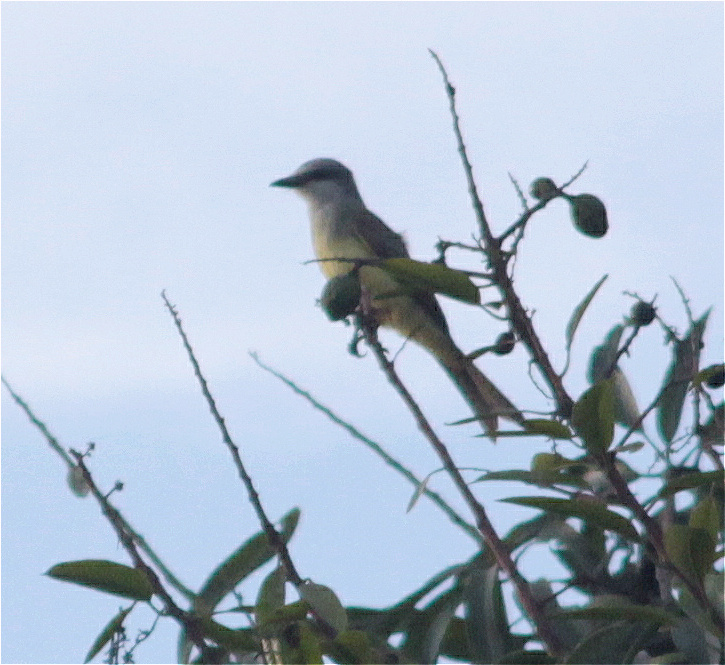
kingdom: Animalia
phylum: Chordata
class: Aves
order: Passeriformes
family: Tyrannidae
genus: Tyrannus
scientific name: Tyrannus melancholicus
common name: Tropical kingbird
